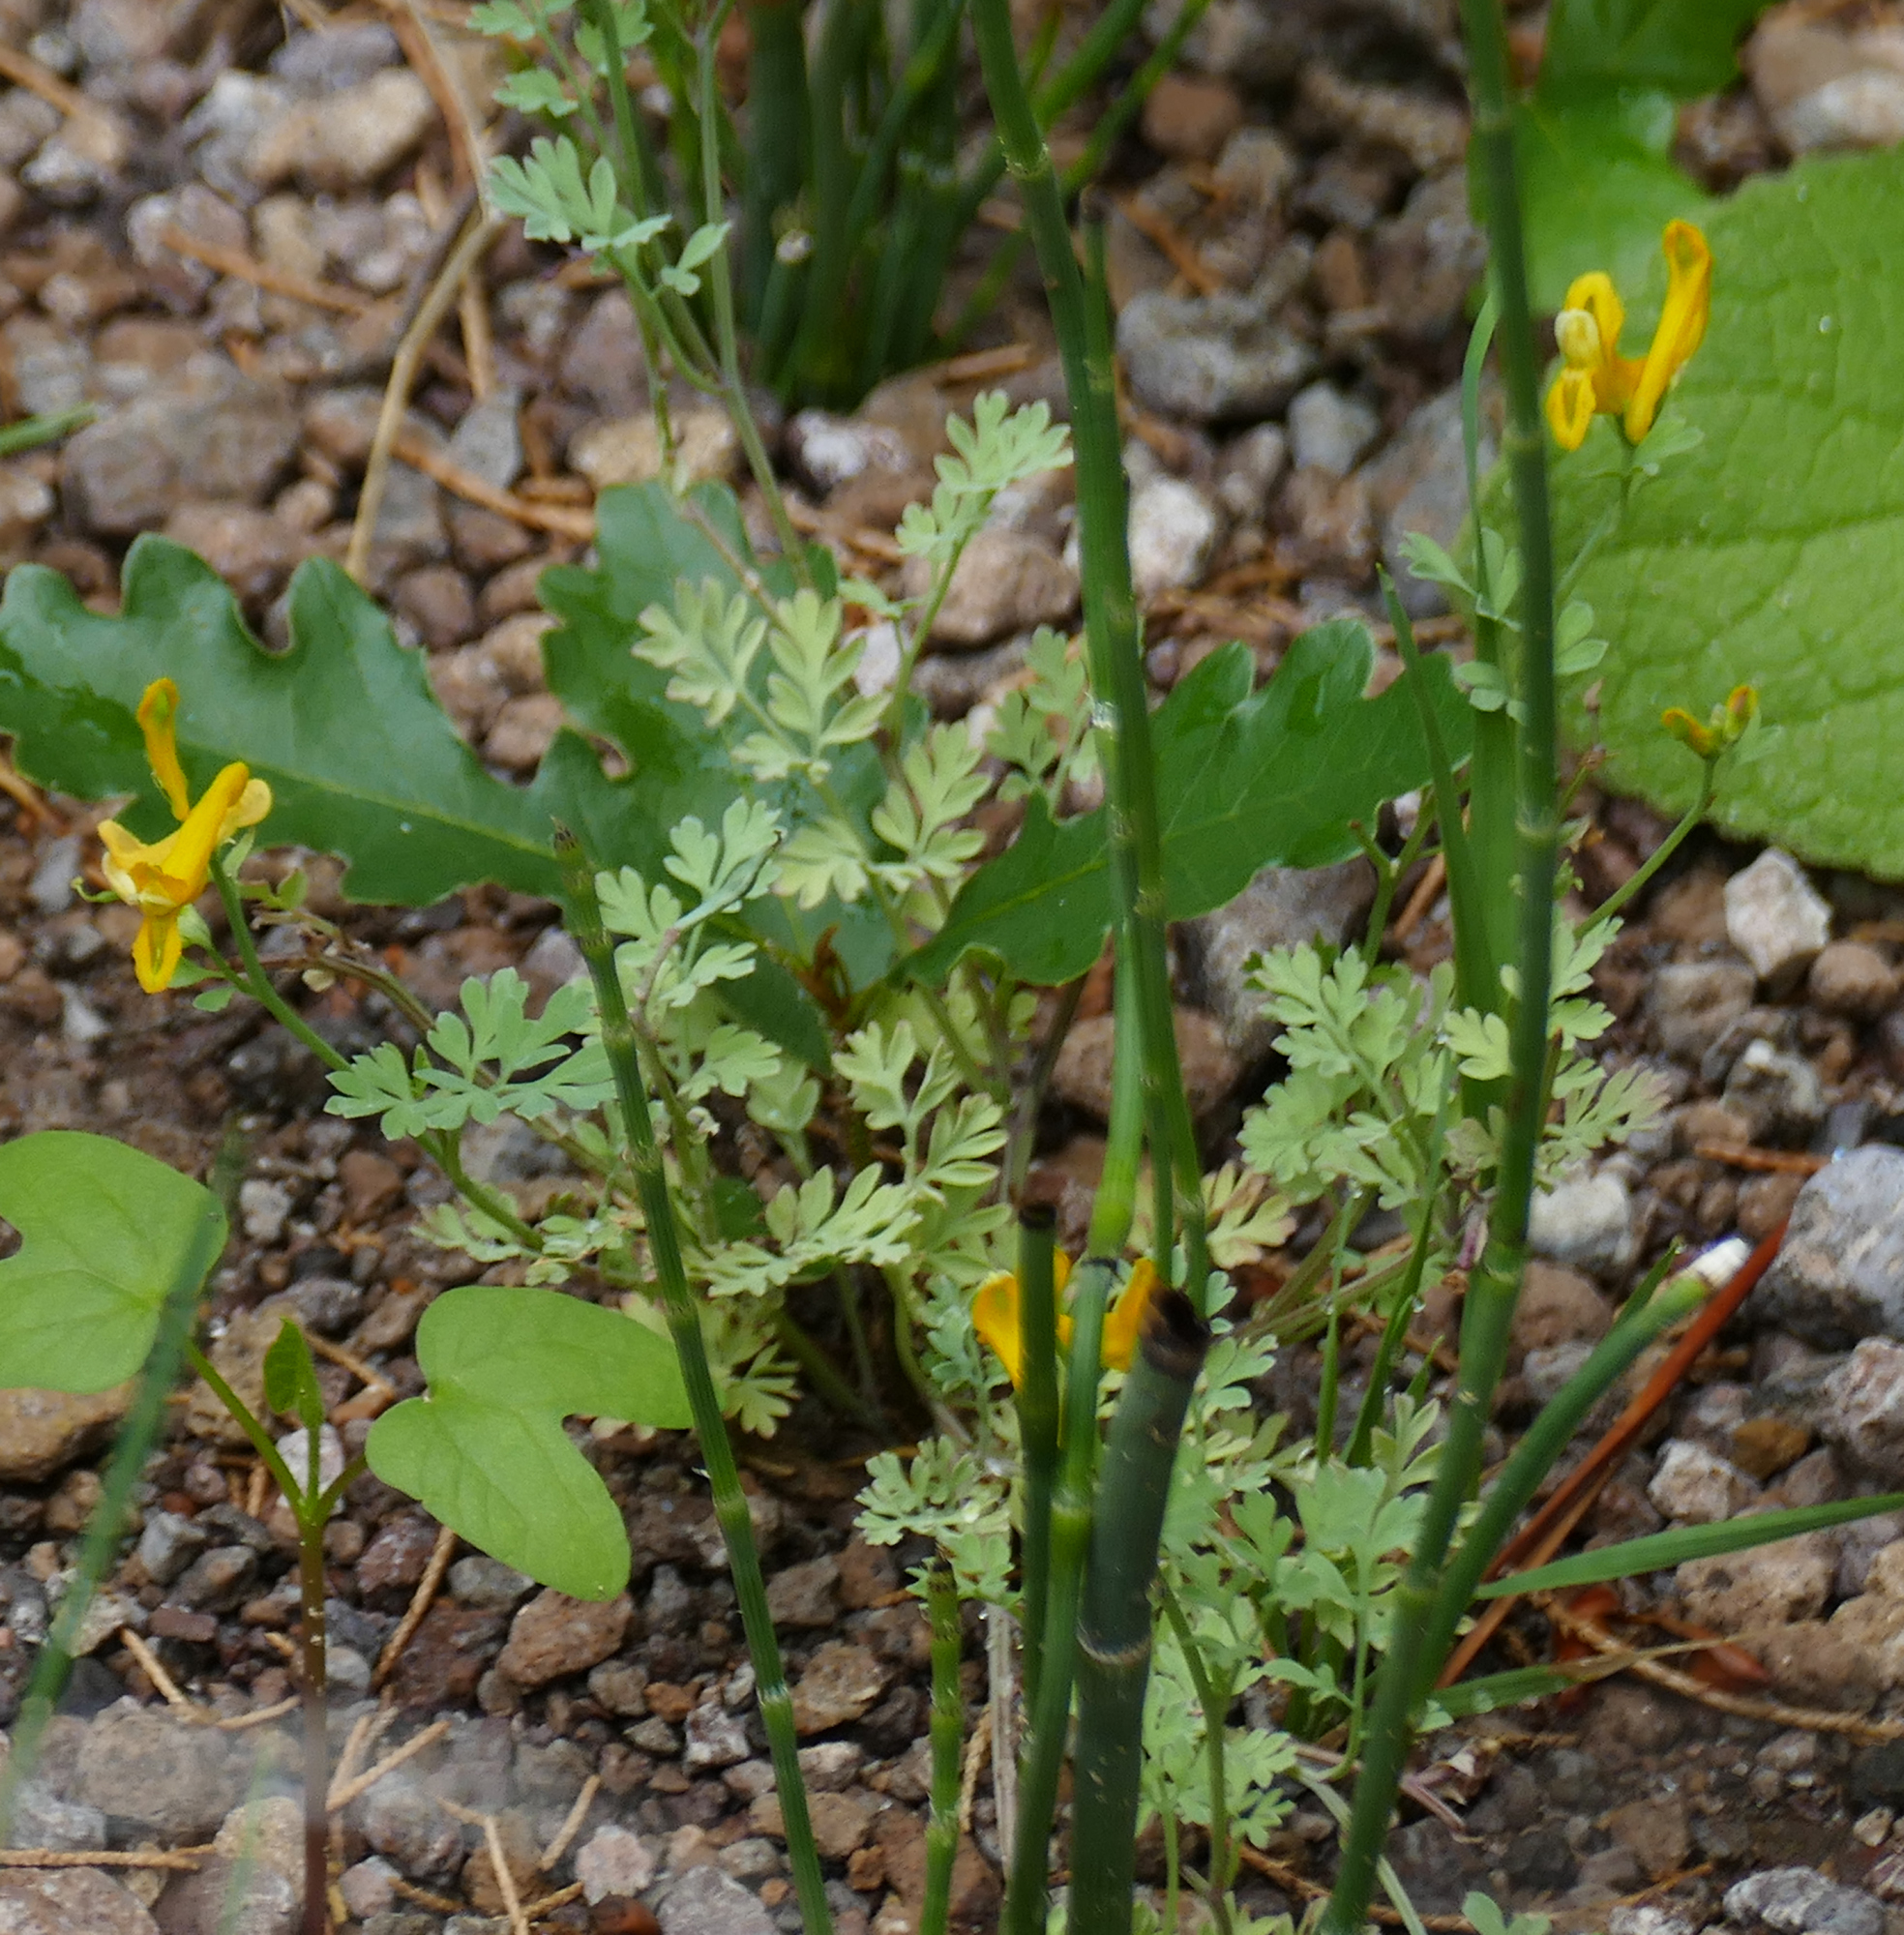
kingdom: Plantae
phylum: Tracheophyta
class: Magnoliopsida
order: Ranunculales
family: Papaveraceae
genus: Corydalis
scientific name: Corydalis aurea
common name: Golden corydalis
